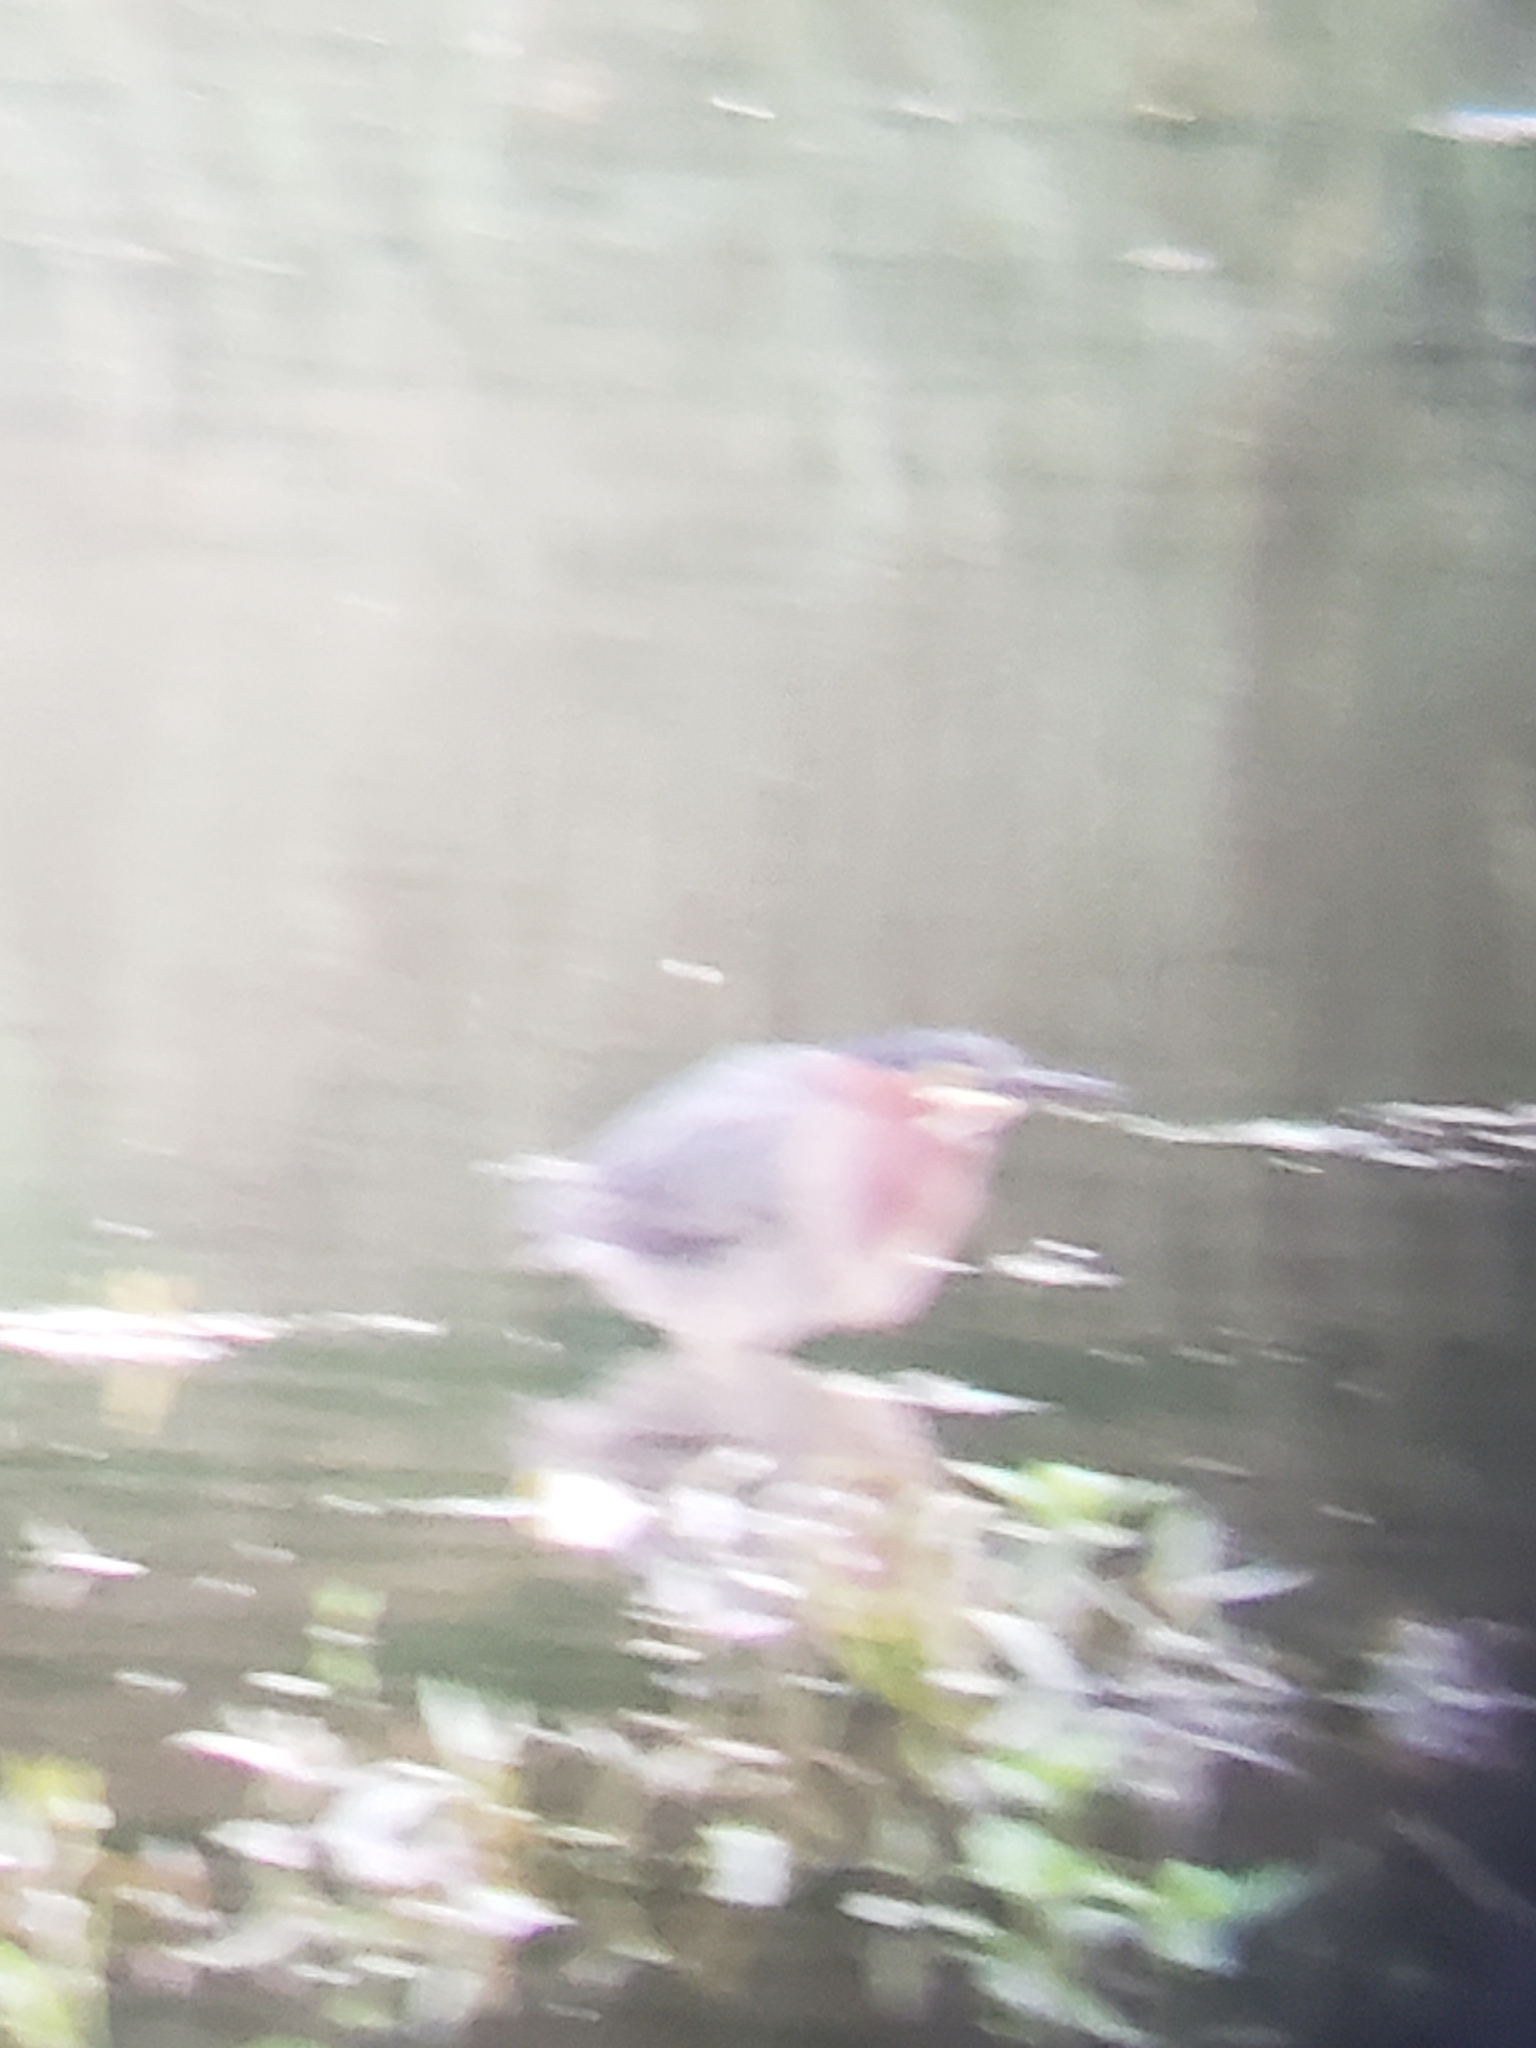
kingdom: Animalia
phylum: Chordata
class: Aves
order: Pelecaniformes
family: Ardeidae
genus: Butorides
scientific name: Butorides virescens
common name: Green heron
